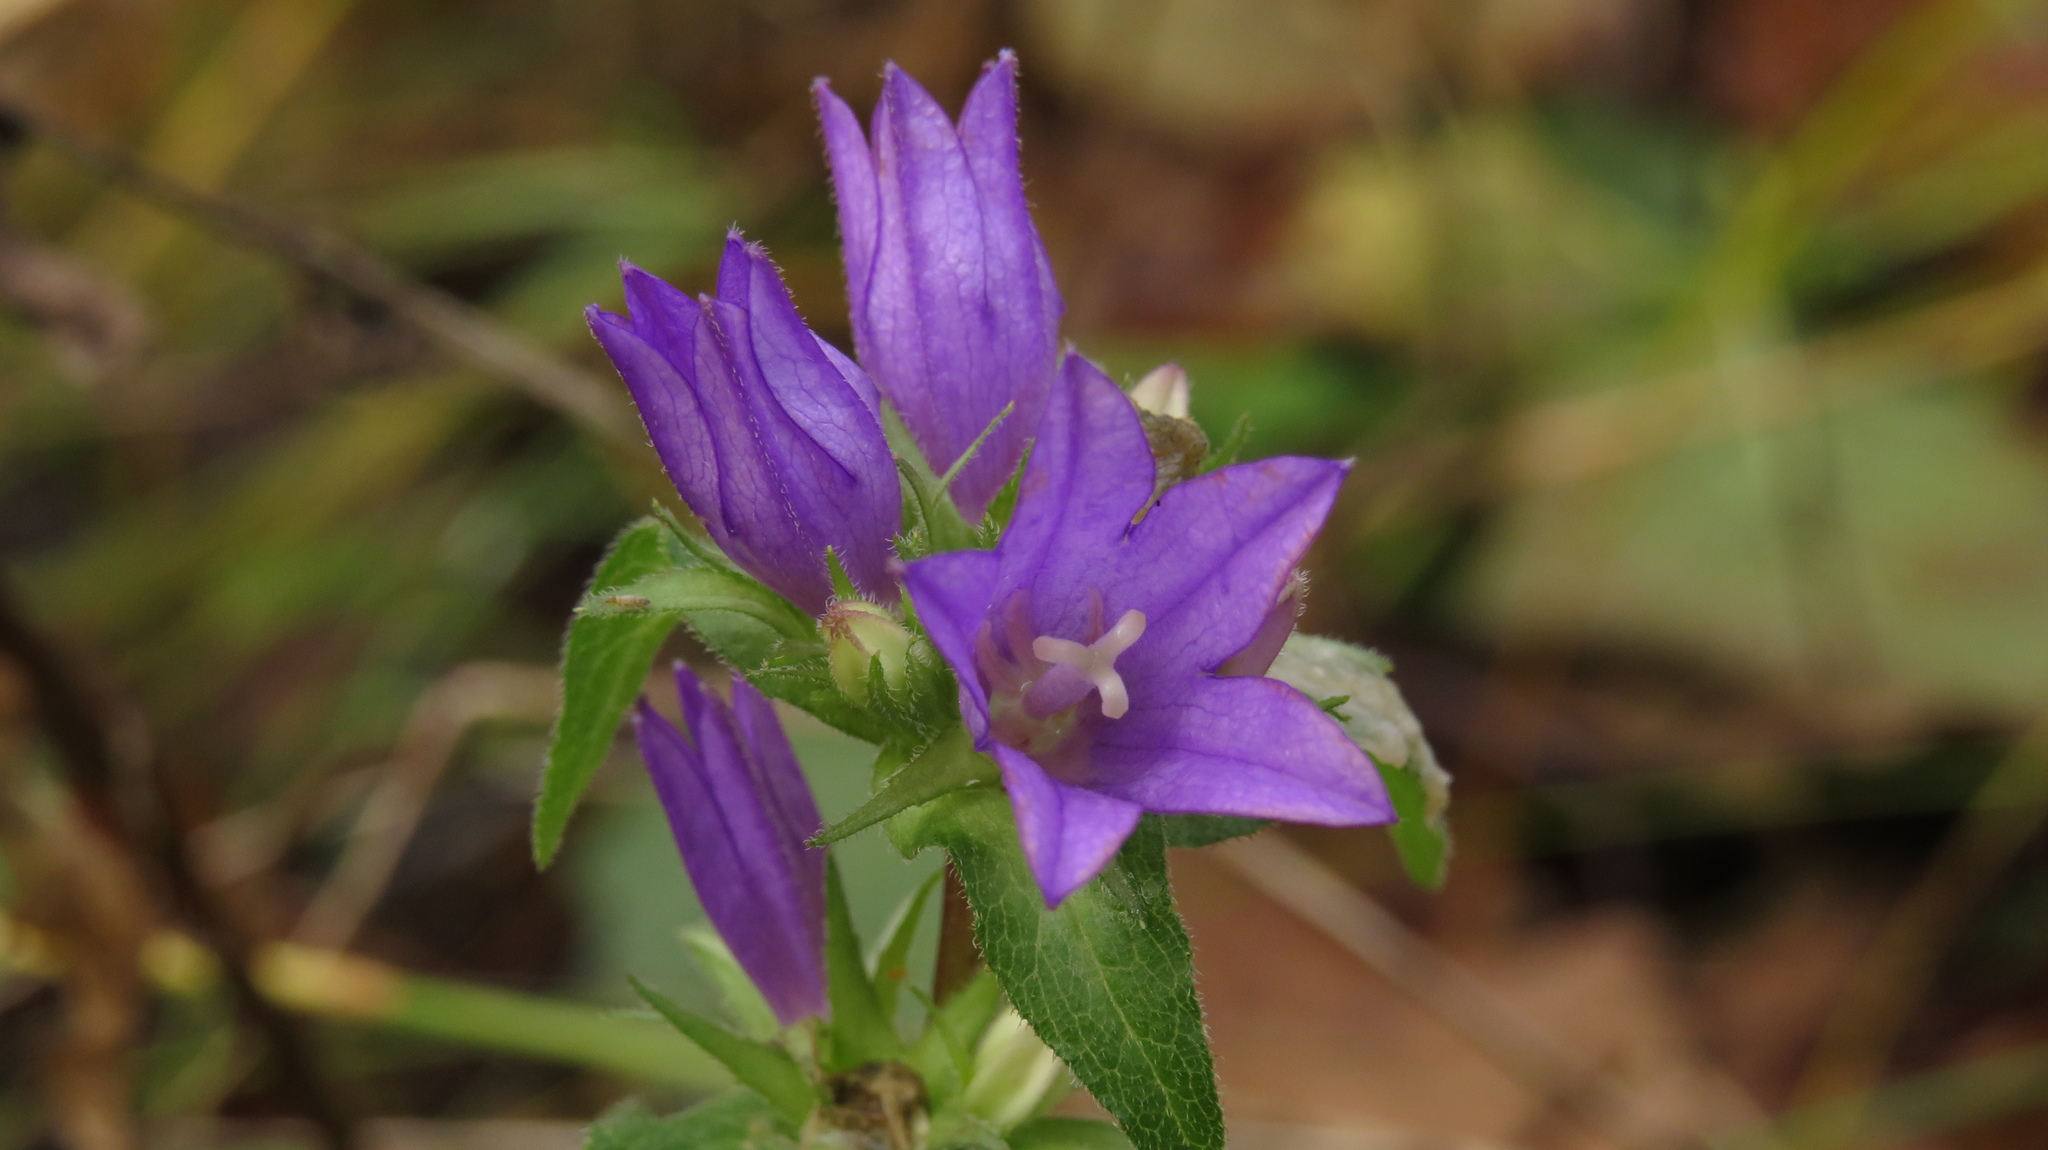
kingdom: Plantae
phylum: Tracheophyta
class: Magnoliopsida
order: Asterales
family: Campanulaceae
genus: Campanula
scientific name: Campanula glomerata
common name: Clustered bellflower
